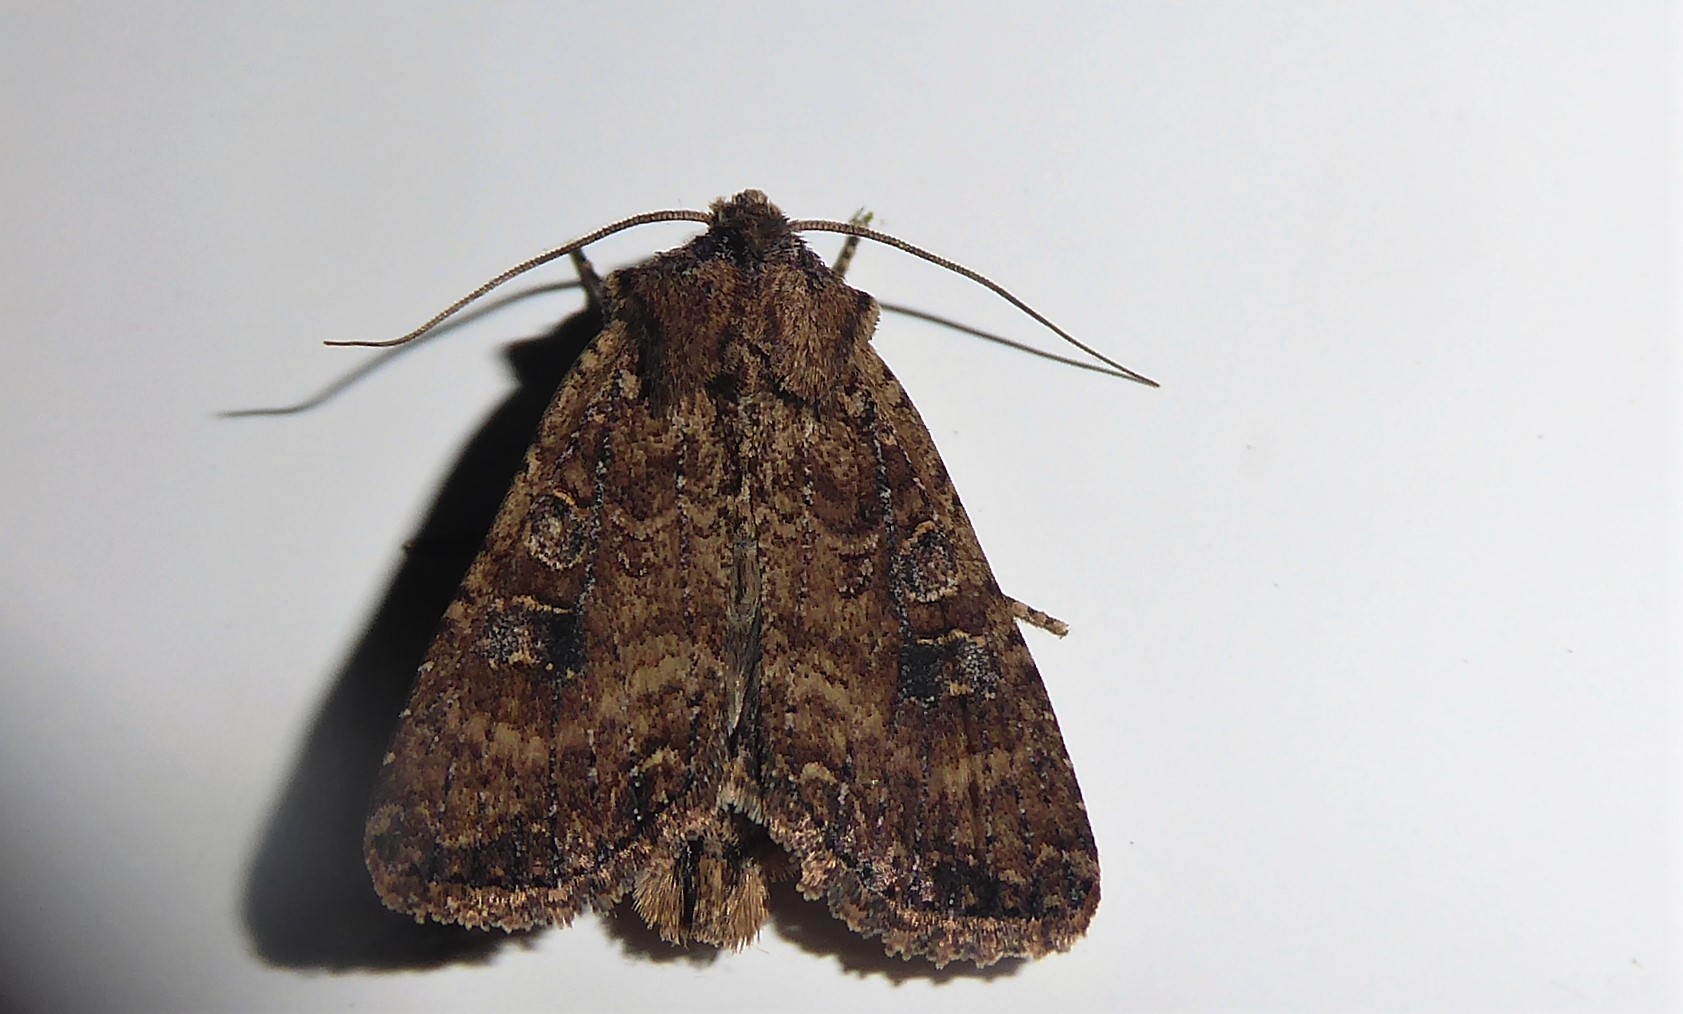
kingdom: Animalia
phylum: Arthropoda
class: Insecta
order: Lepidoptera
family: Noctuidae
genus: Ichneutica
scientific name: Ichneutica morosa
